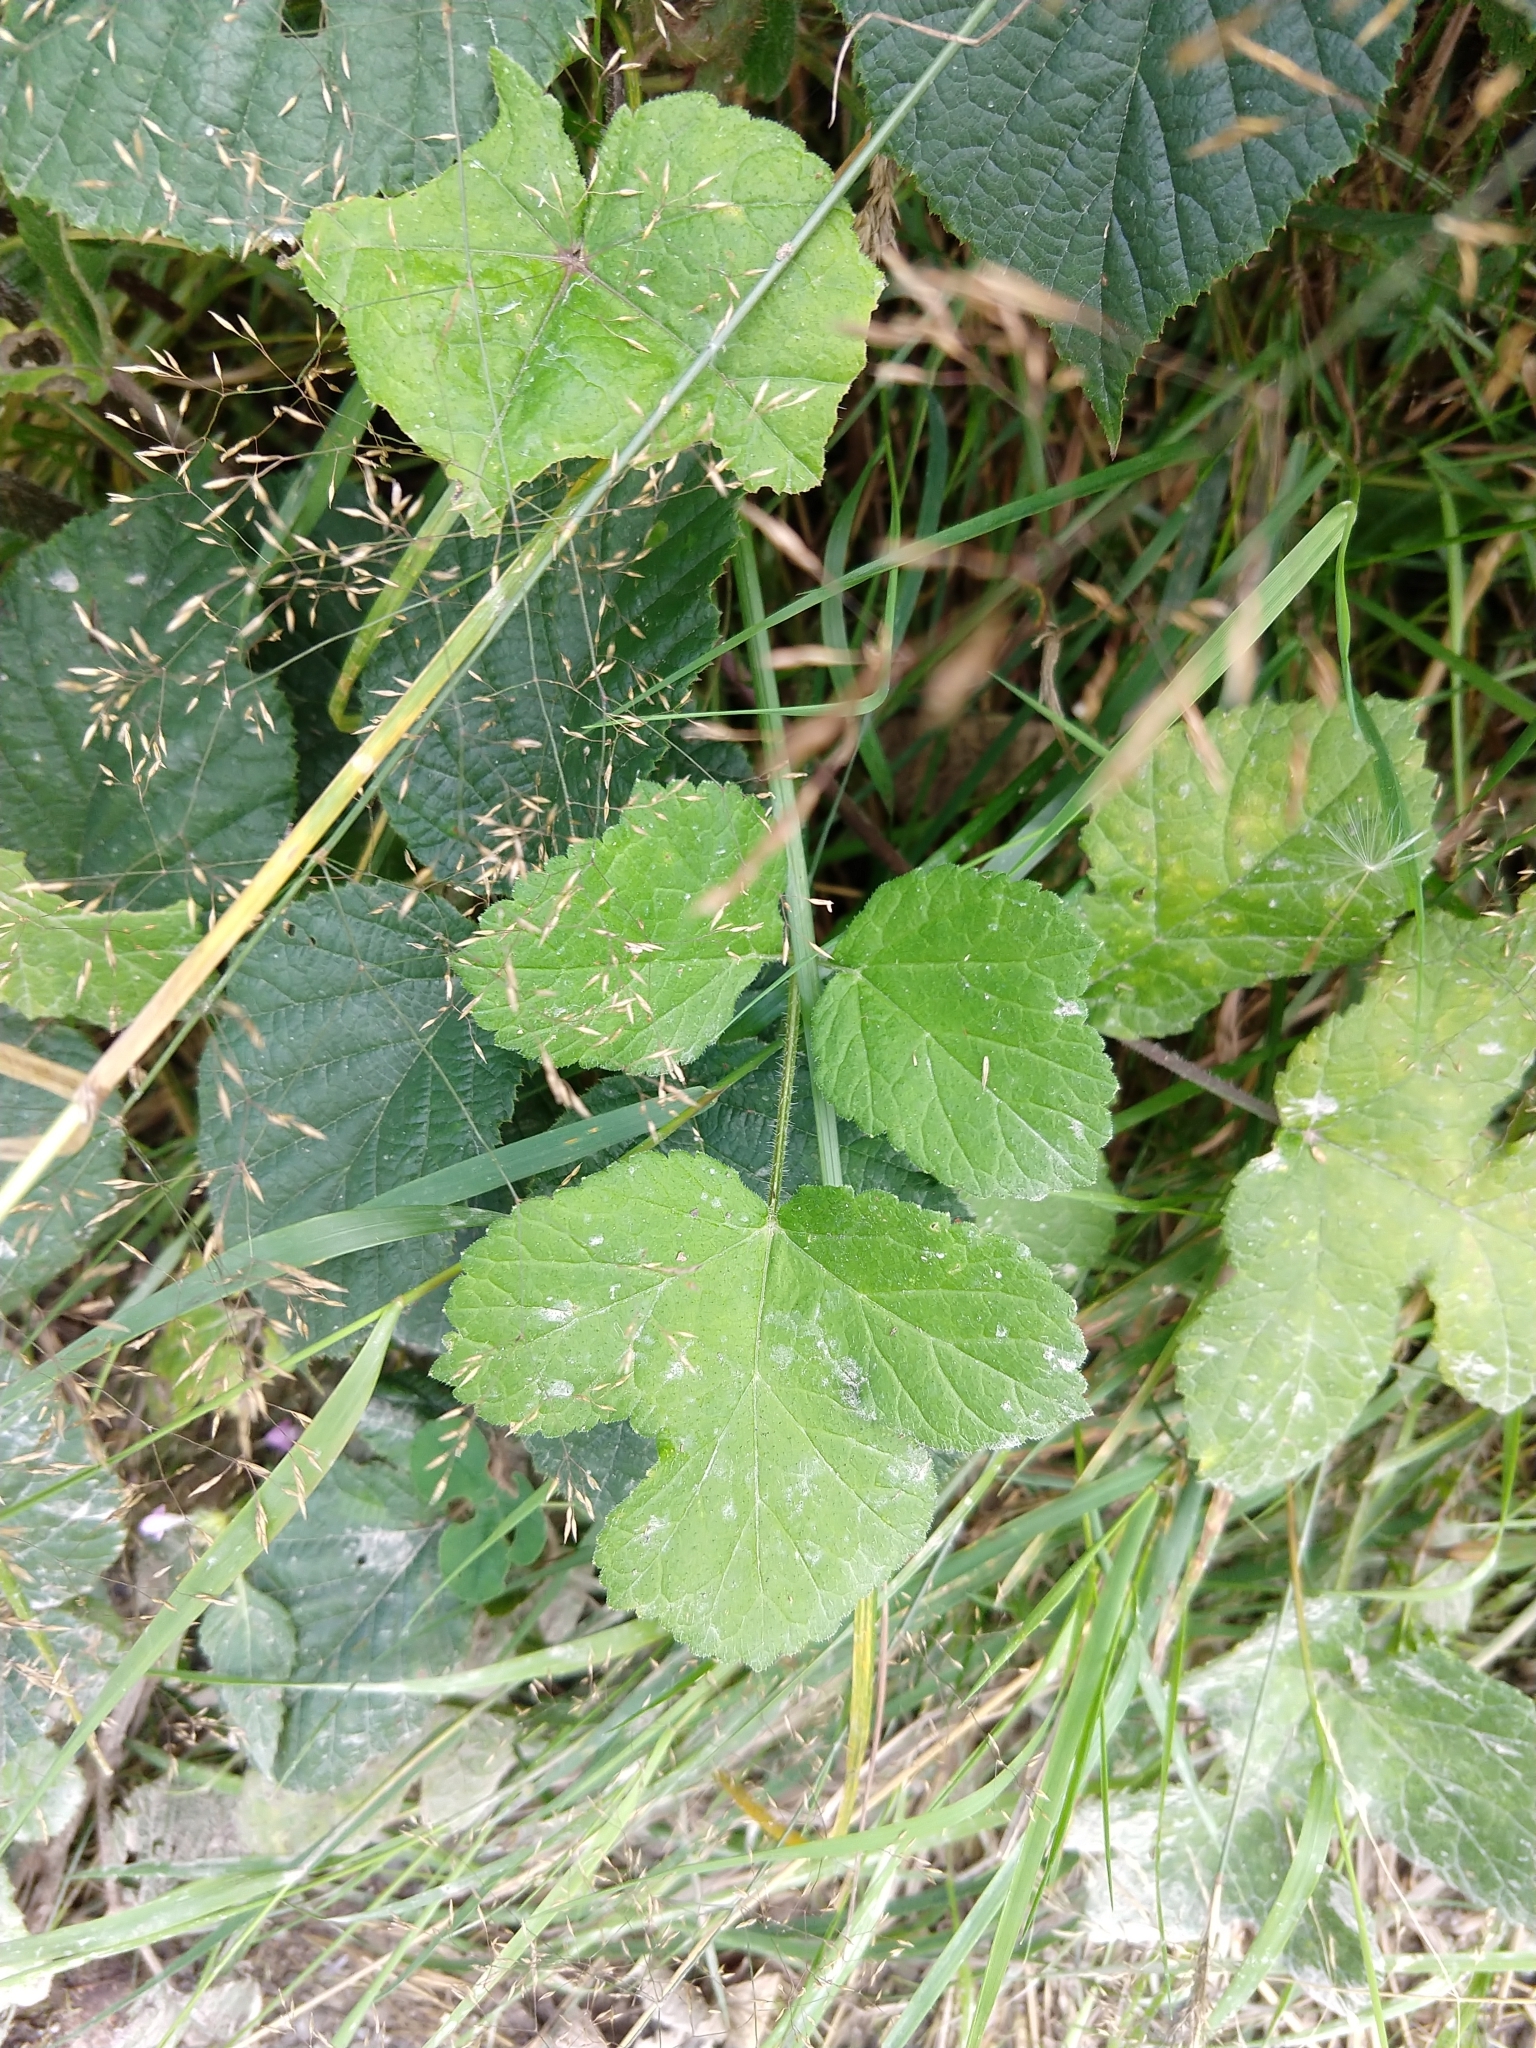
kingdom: Plantae
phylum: Tracheophyta
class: Magnoliopsida
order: Apiales
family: Apiaceae
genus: Heracleum
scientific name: Heracleum sphondylium
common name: Hogweed
